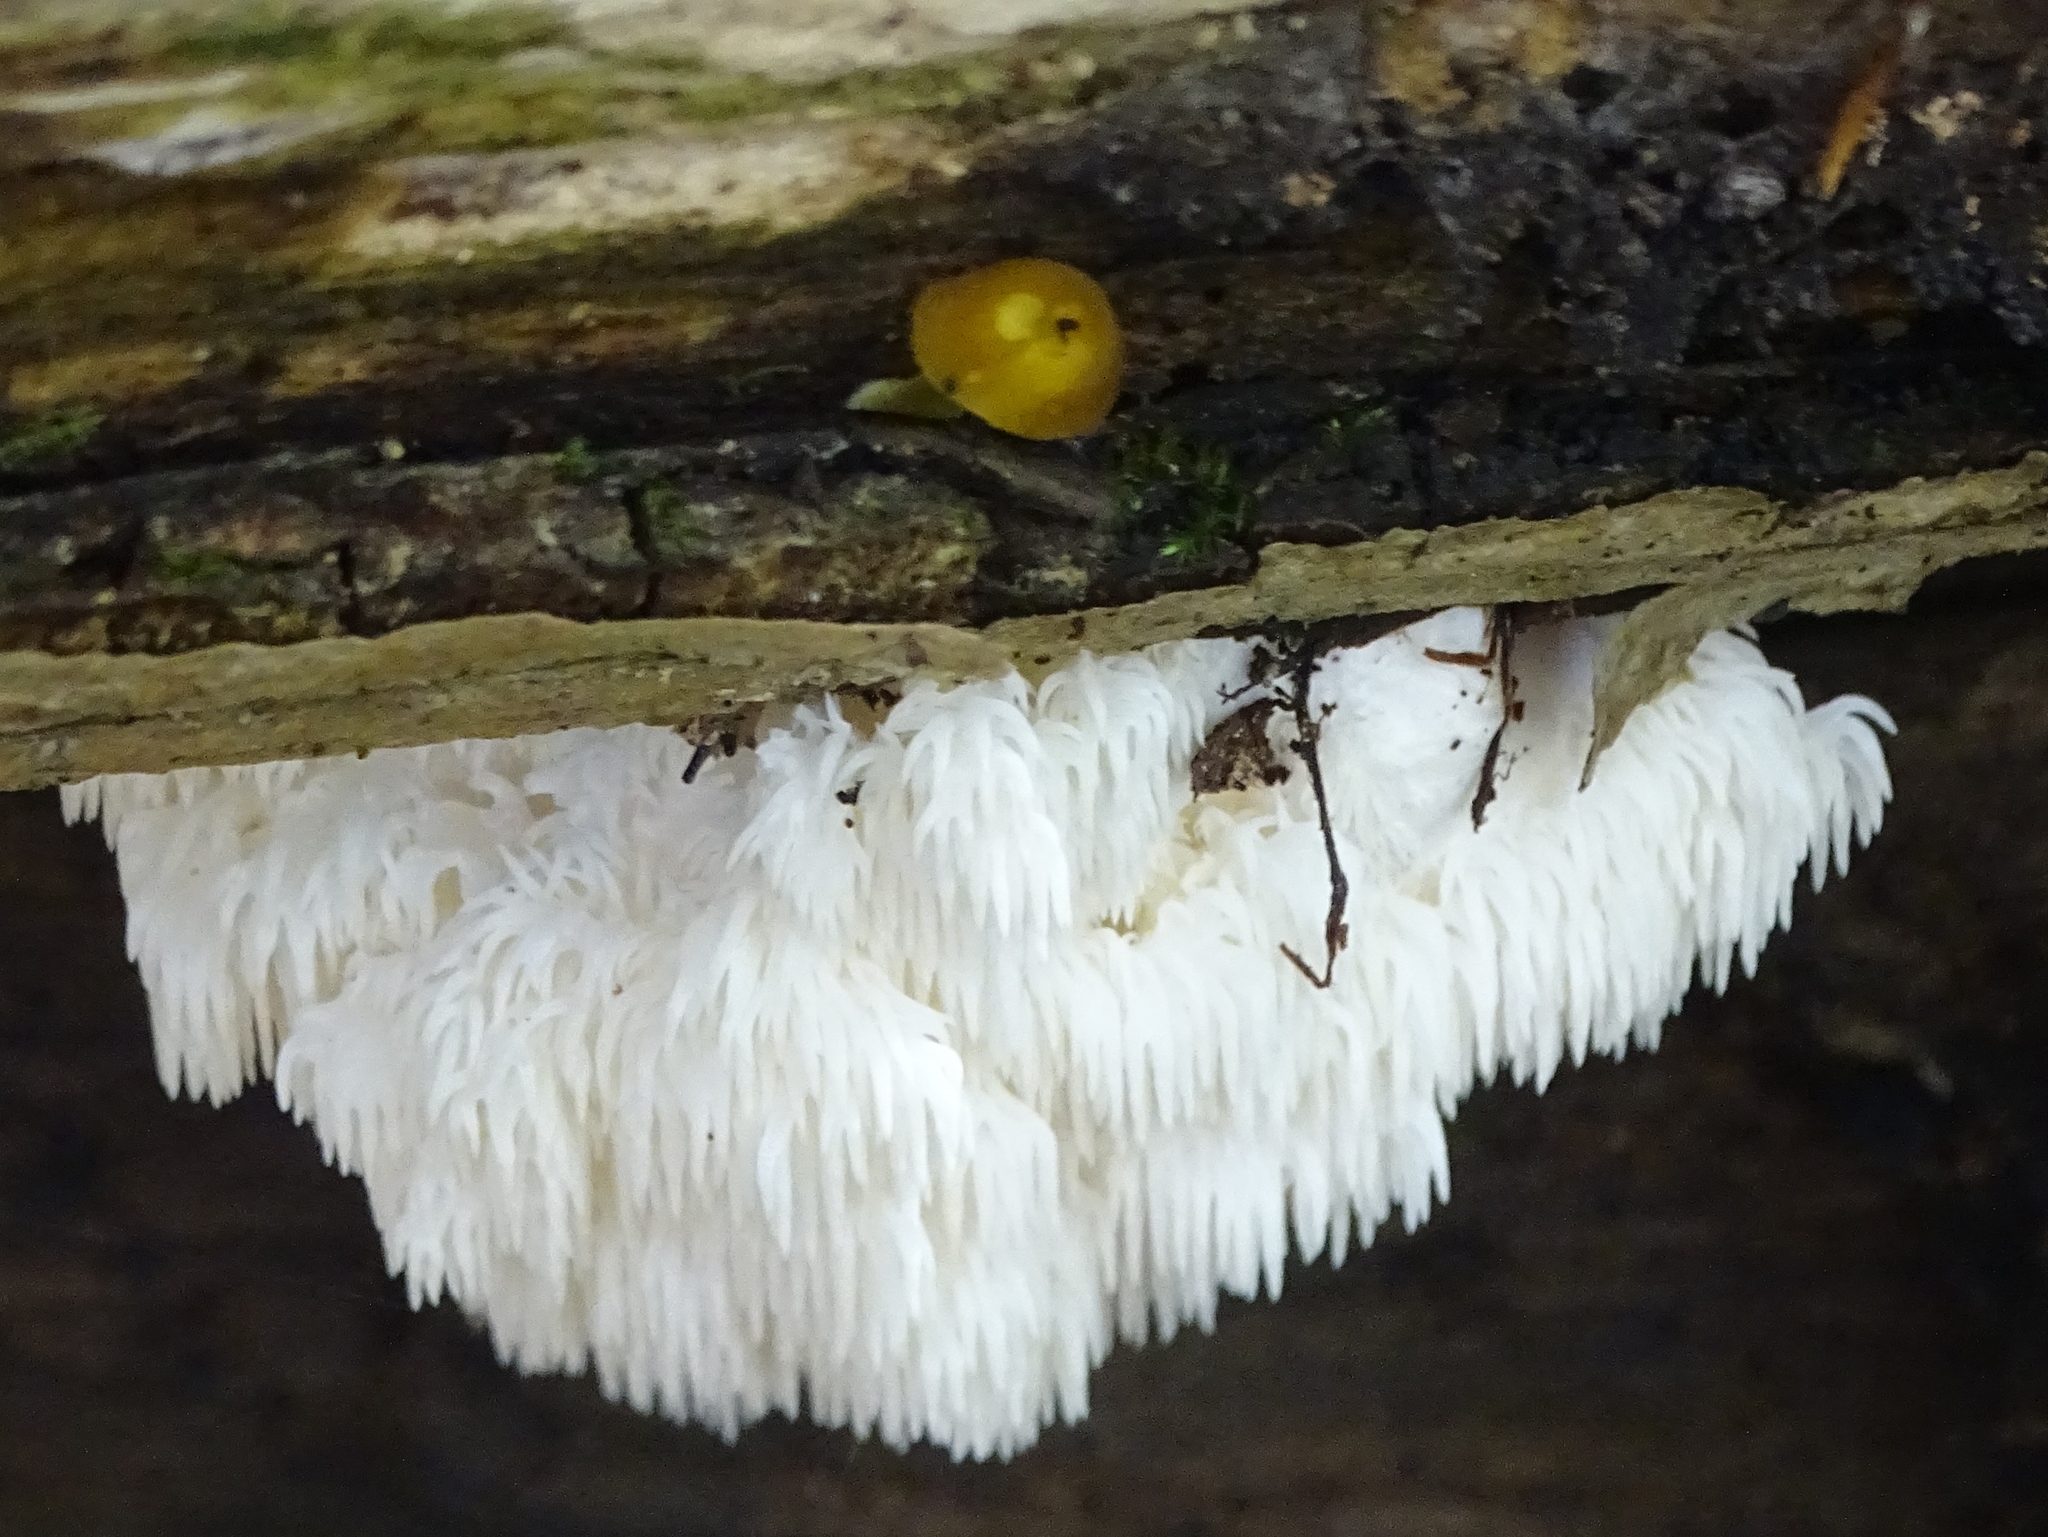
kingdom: Fungi
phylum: Basidiomycota
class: Agaricomycetes
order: Russulales
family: Hericiaceae
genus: Hericium
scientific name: Hericium americanum
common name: Bear's head tooth
